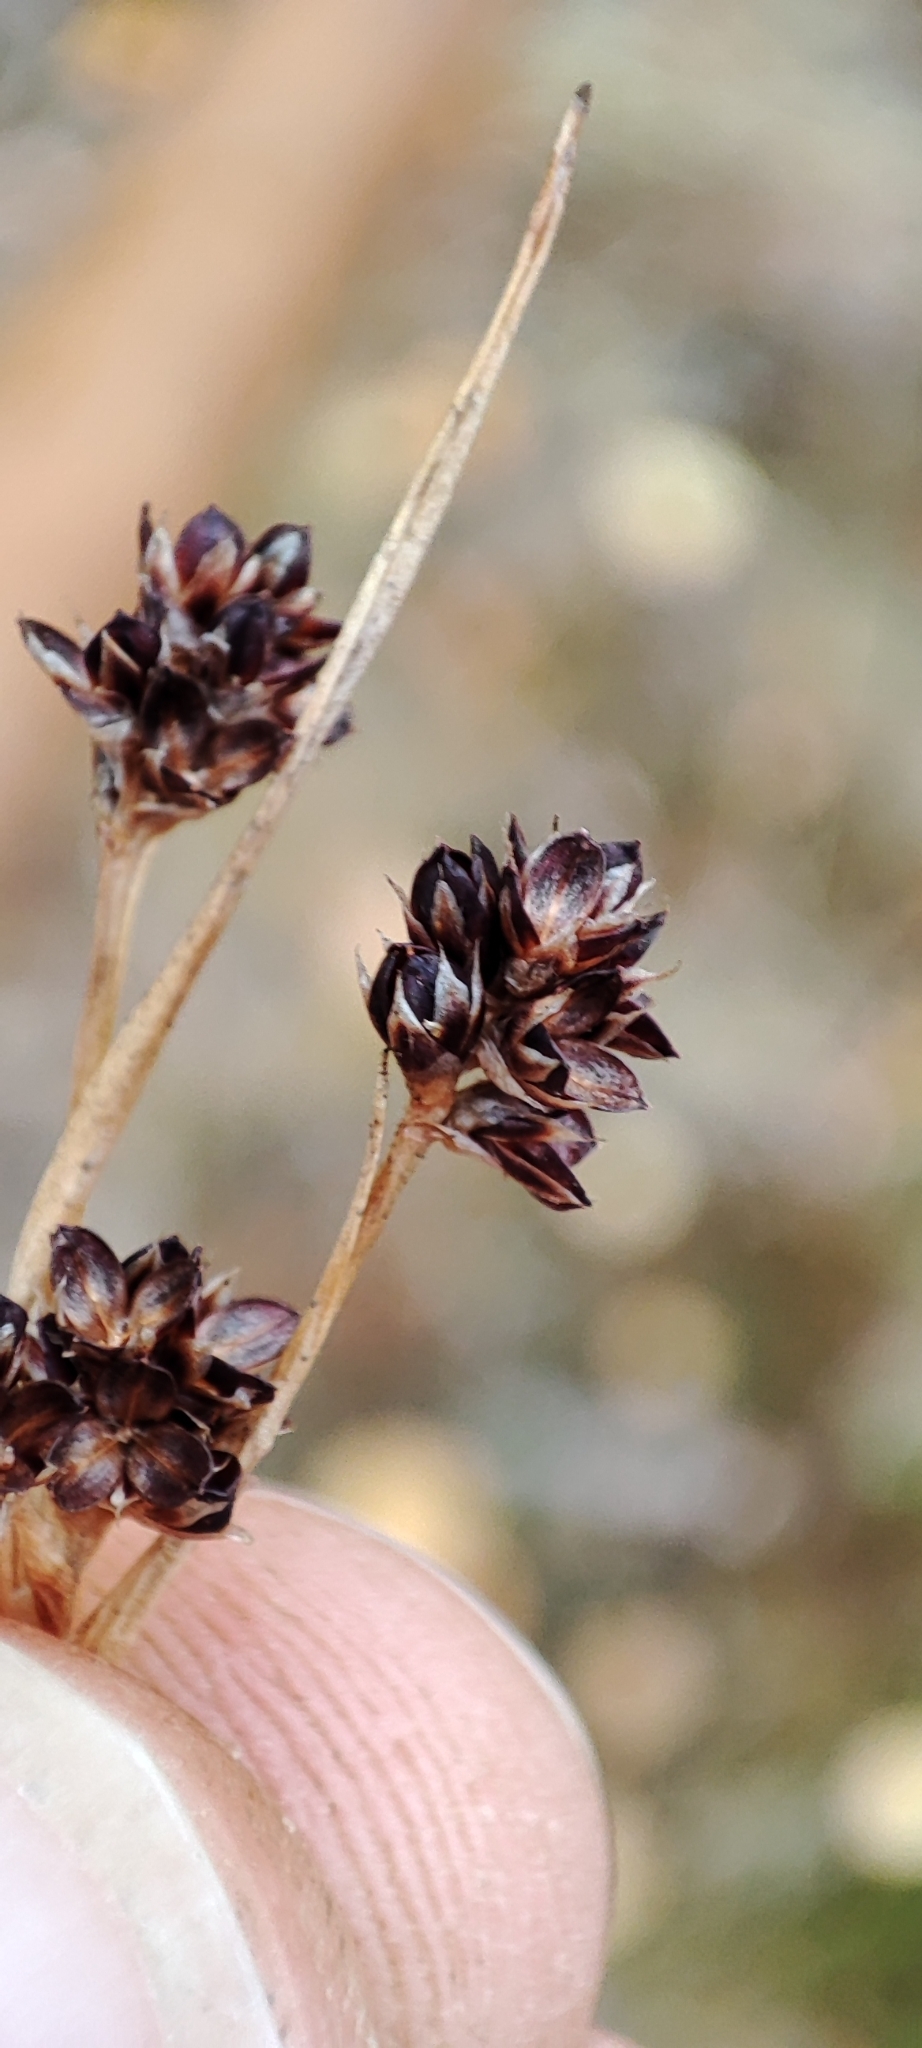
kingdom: Plantae
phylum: Tracheophyta
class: Liliopsida
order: Poales
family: Juncaceae
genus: Luzula
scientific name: Luzula multiflora
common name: Heath wood-rush
